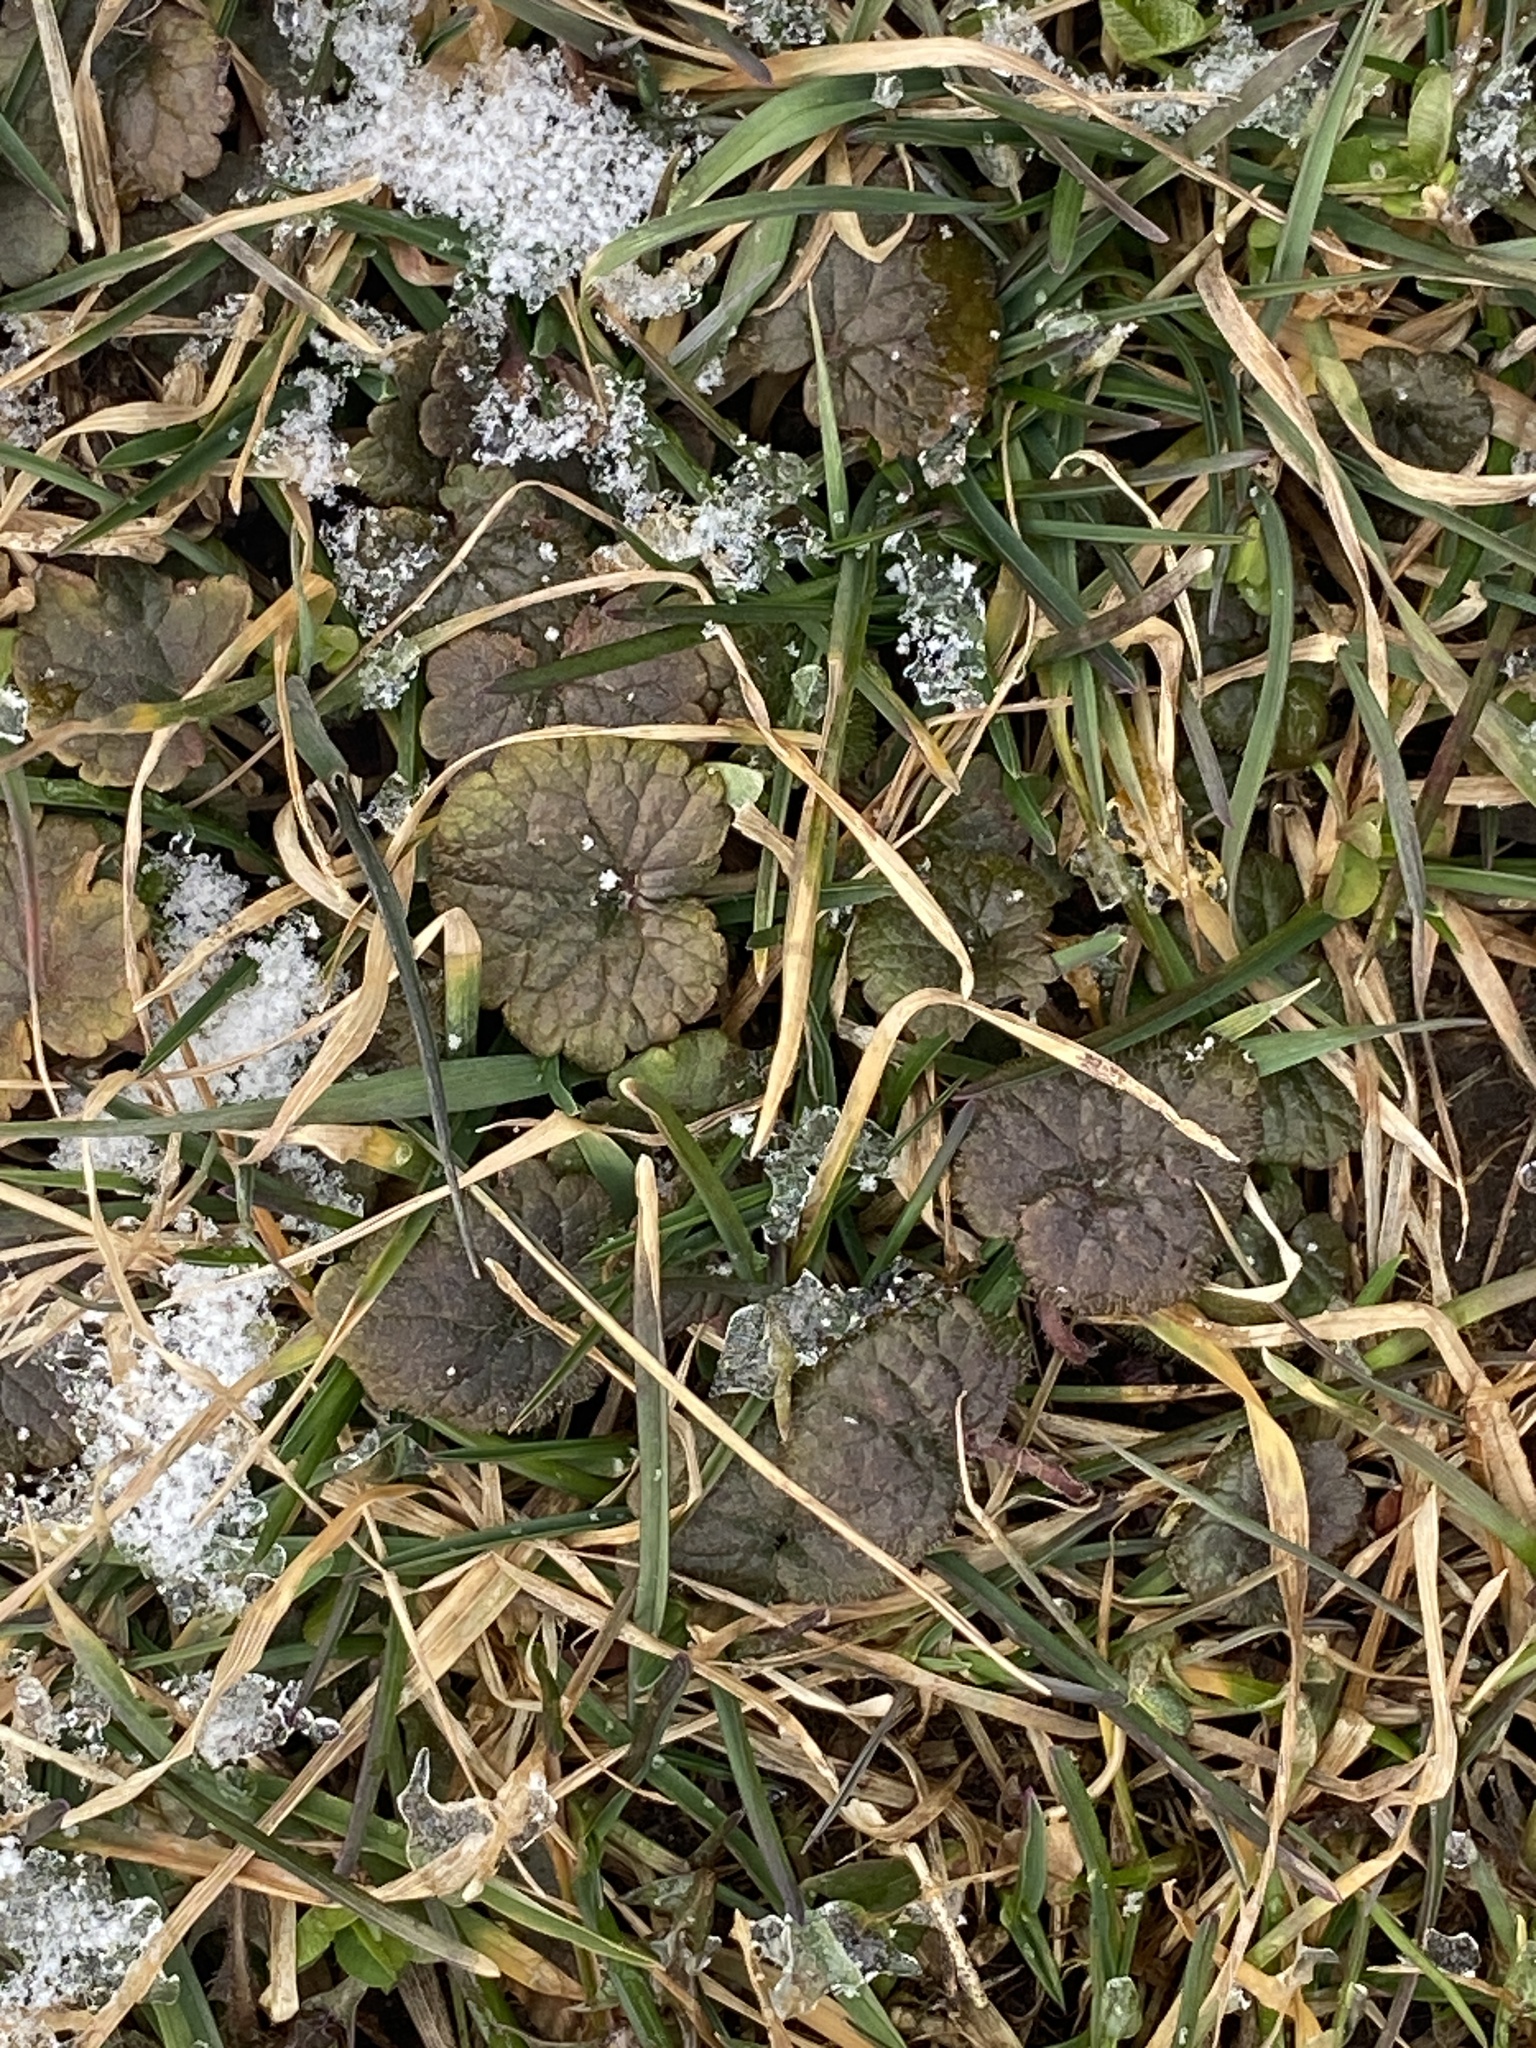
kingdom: Plantae
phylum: Tracheophyta
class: Magnoliopsida
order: Lamiales
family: Lamiaceae
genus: Glechoma
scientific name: Glechoma hederacea
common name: Ground ivy
